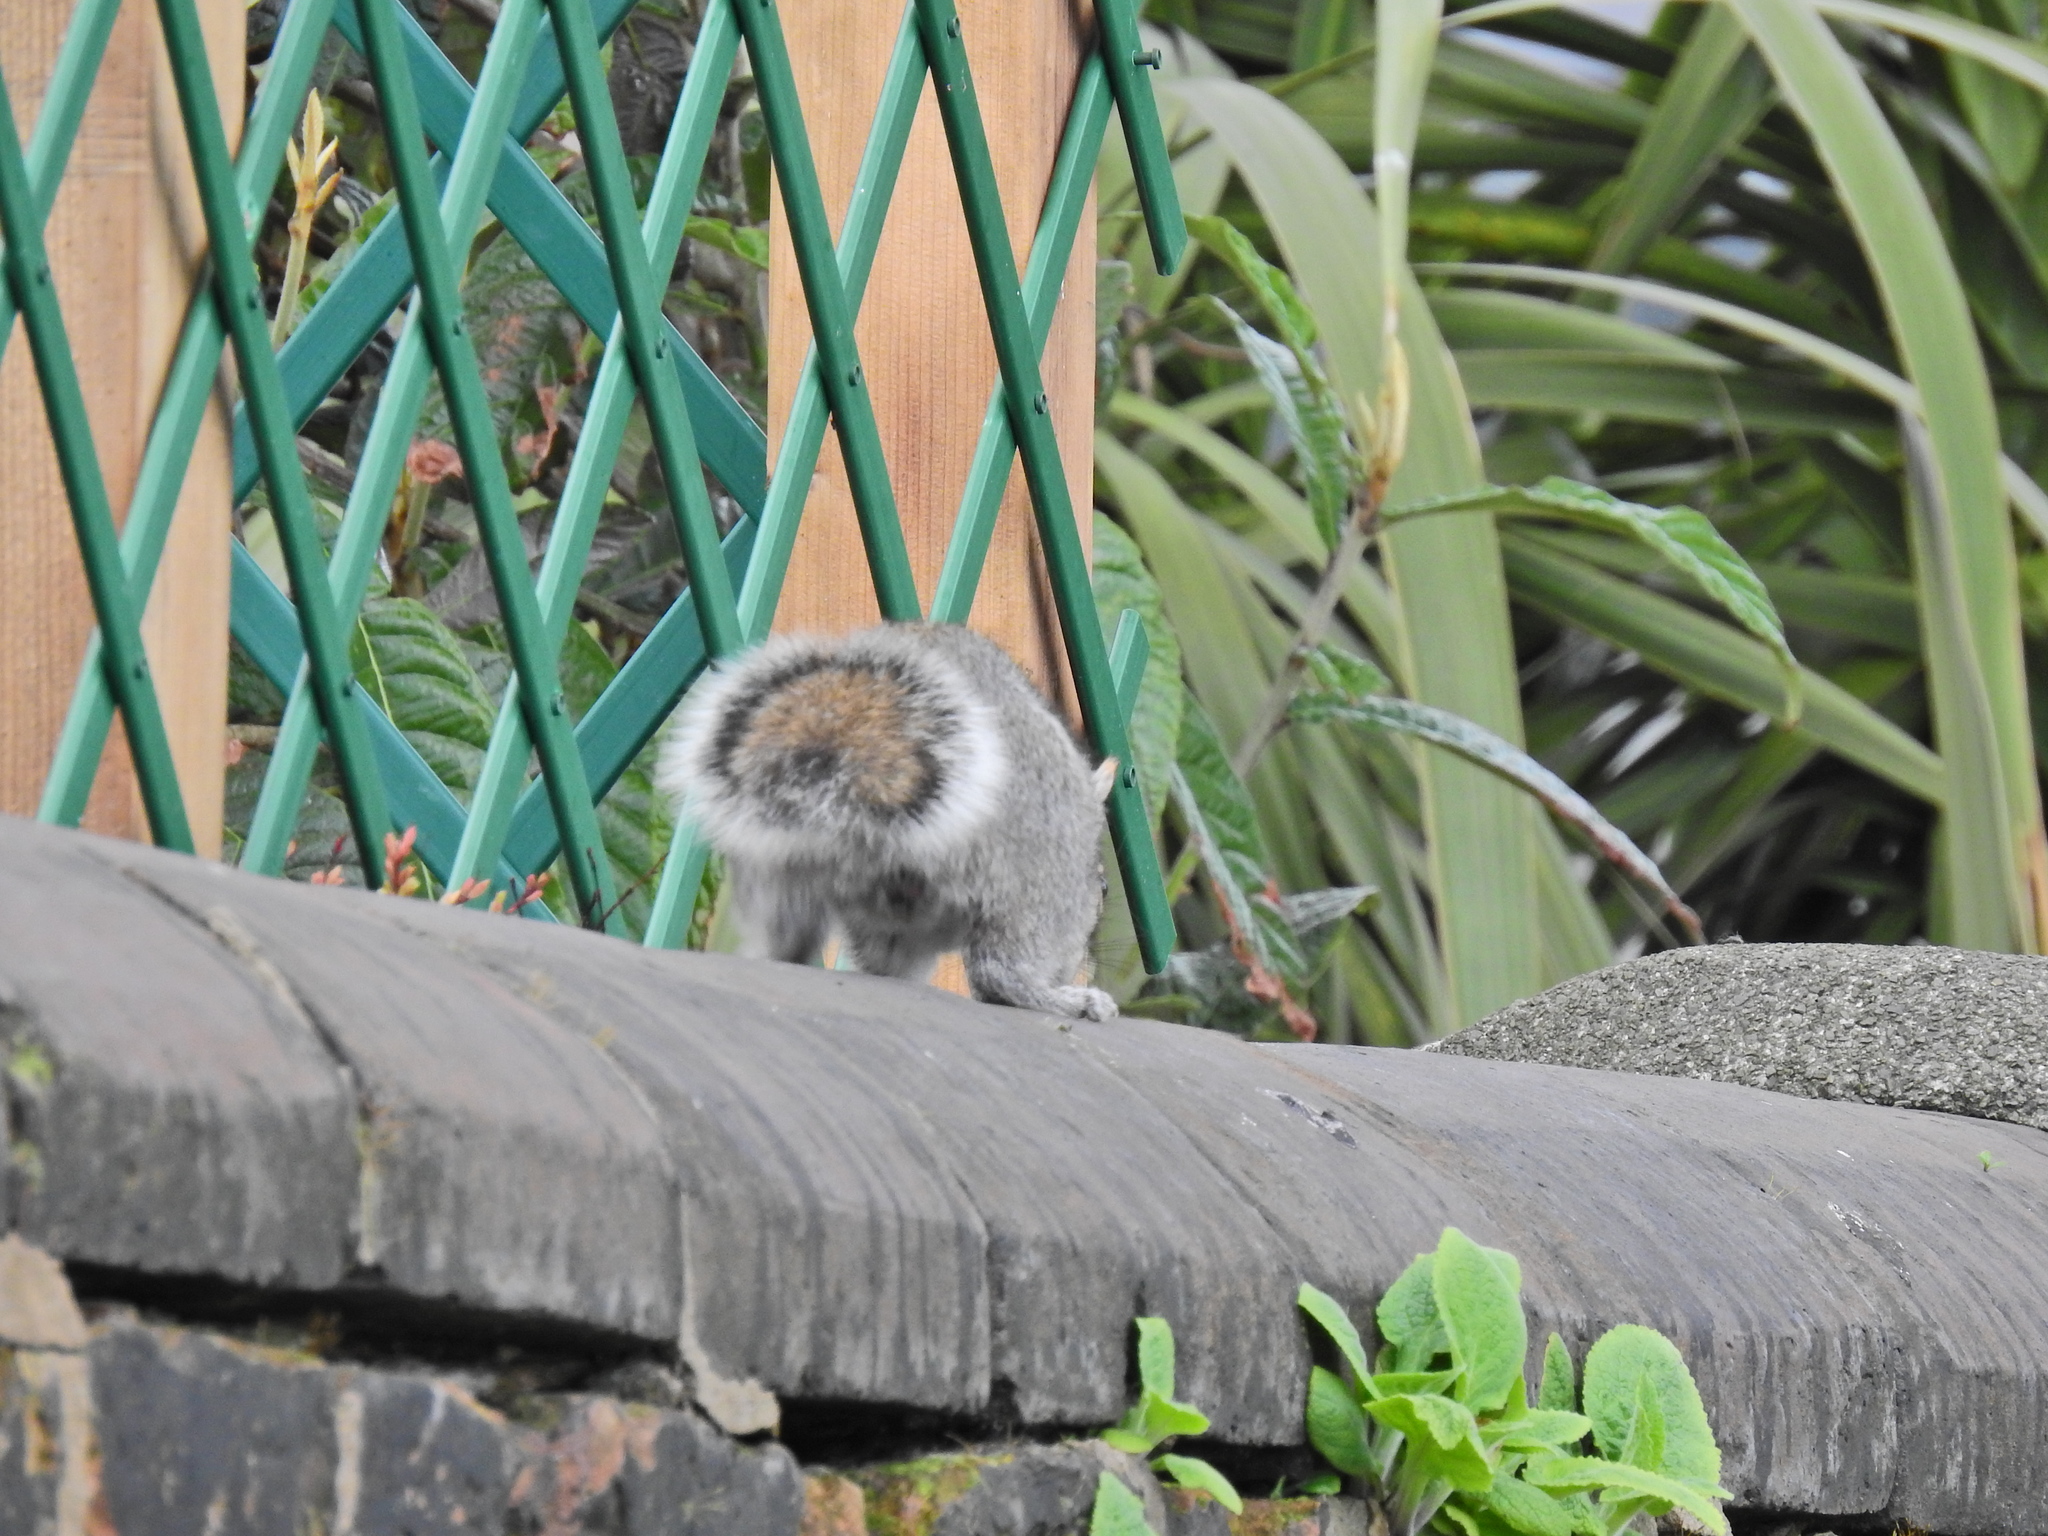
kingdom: Animalia
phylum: Chordata
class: Mammalia
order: Rodentia
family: Sciuridae
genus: Sciurus
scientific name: Sciurus carolinensis
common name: Eastern gray squirrel
